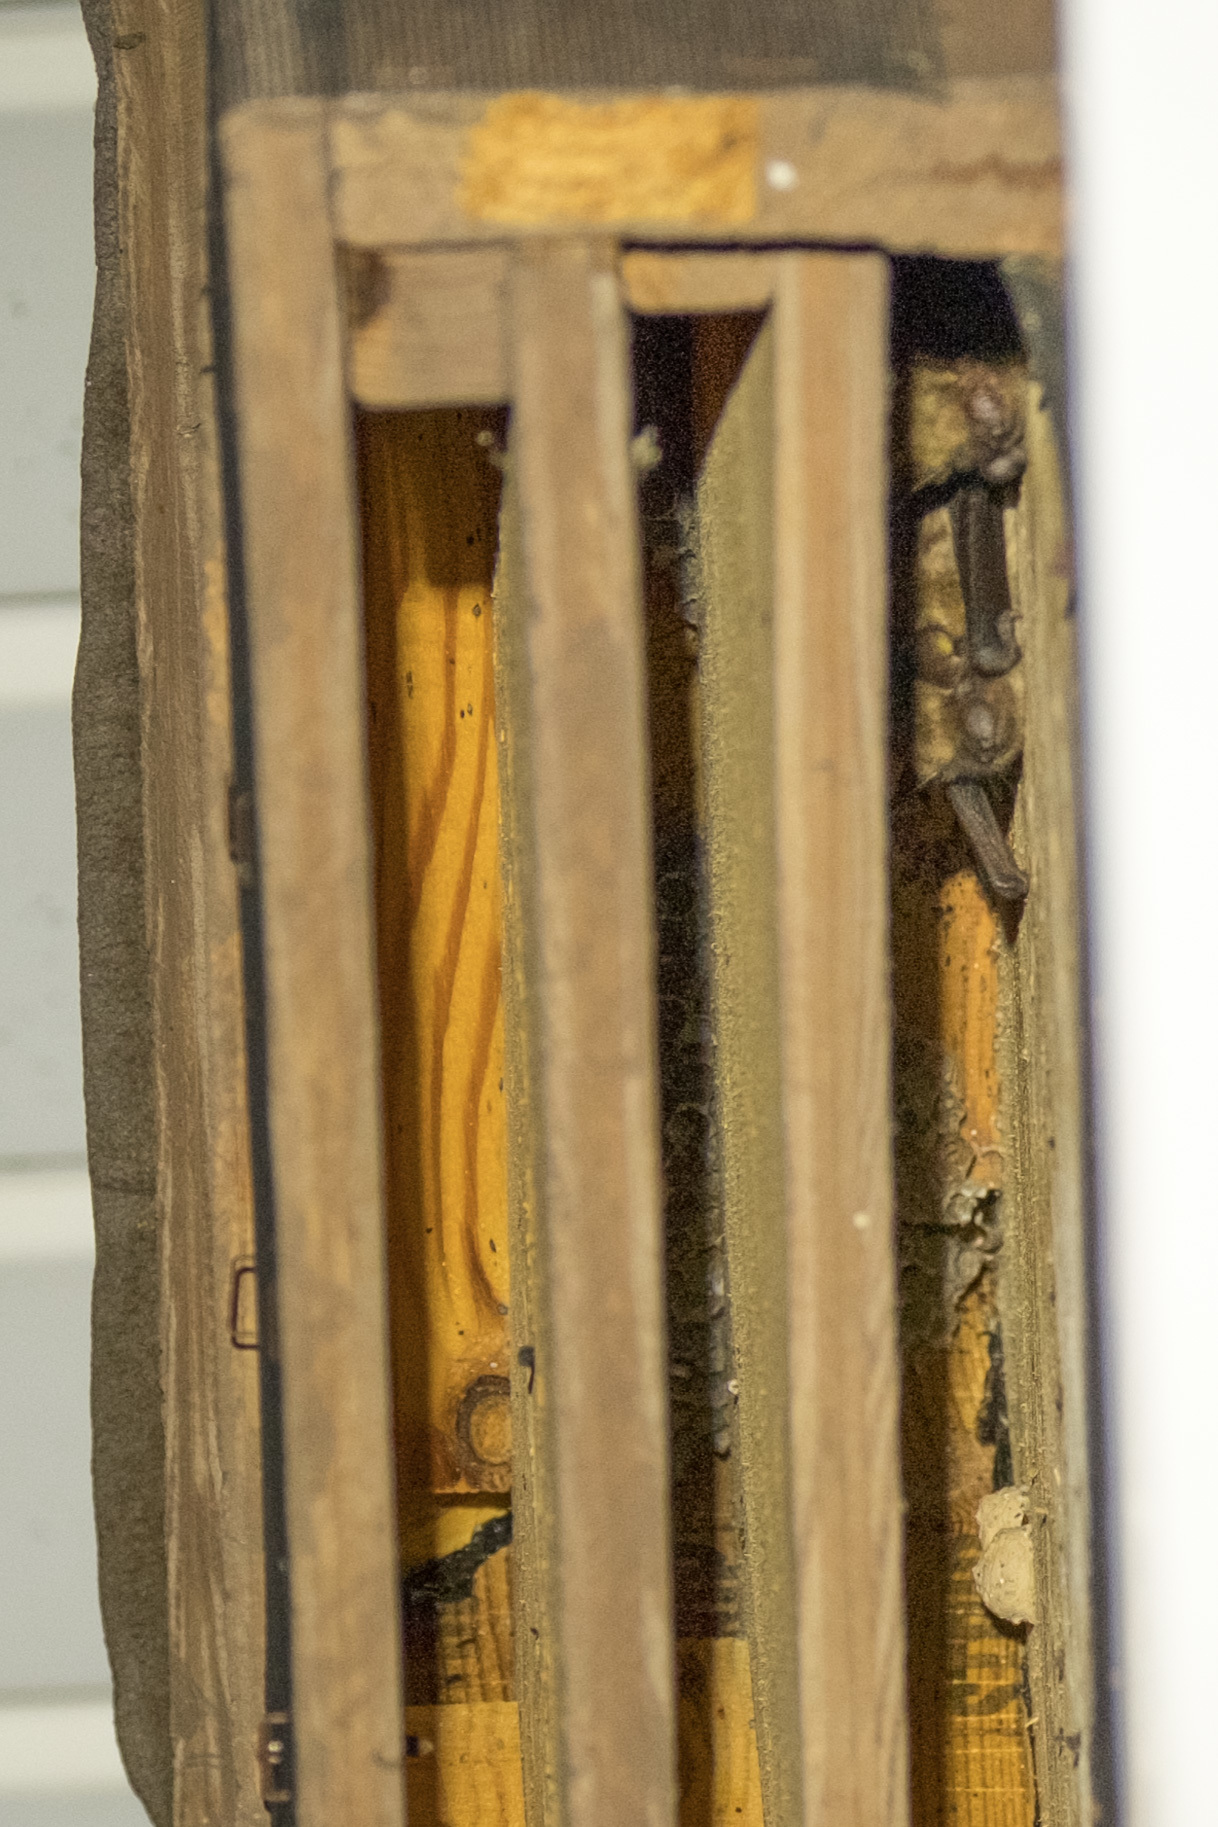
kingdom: Animalia
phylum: Chordata
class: Mammalia
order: Chiroptera
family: Vespertilionidae
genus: Eptesicus
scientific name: Eptesicus fuscus
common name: Big brown bat
